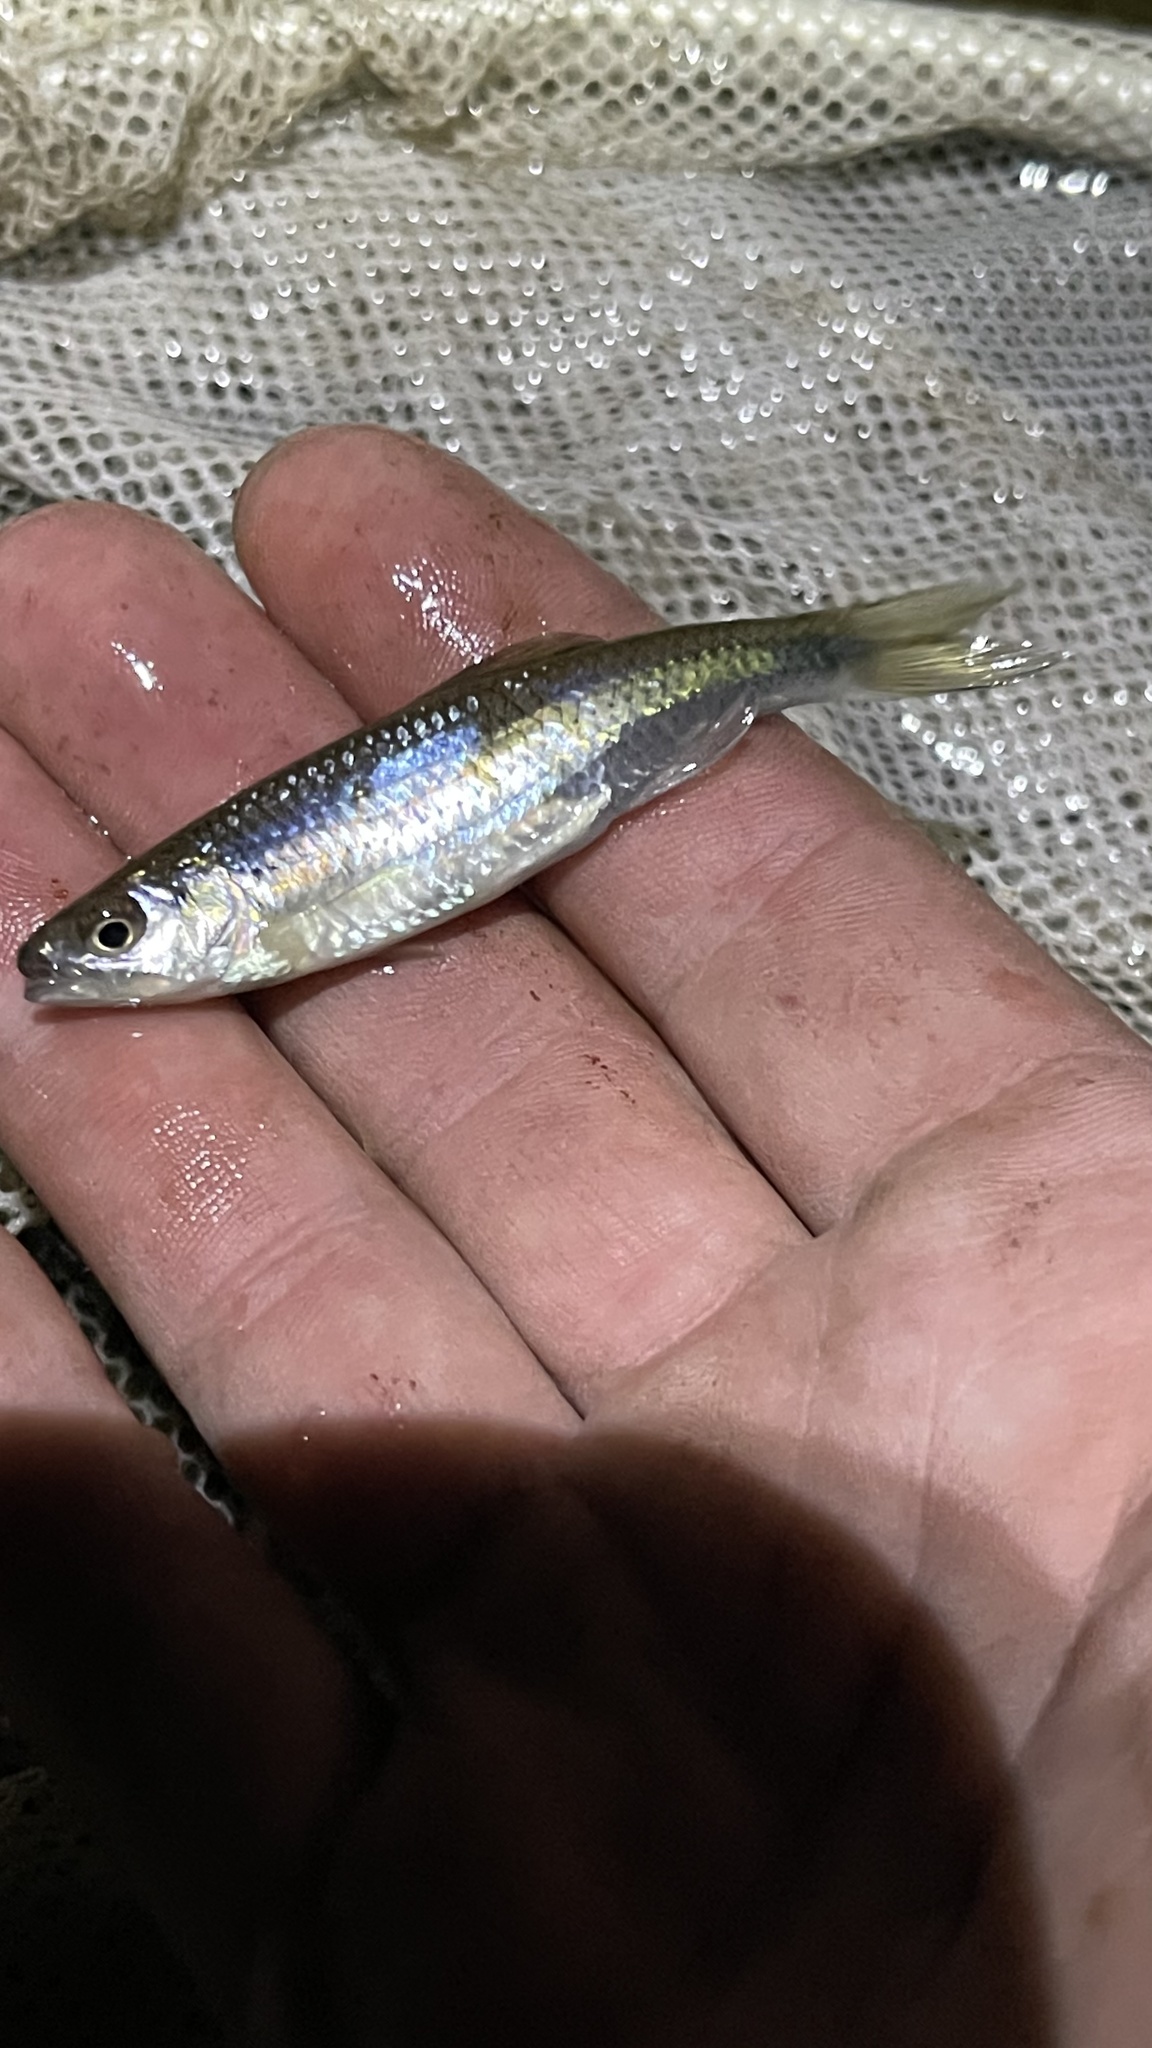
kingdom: Animalia
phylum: Chordata
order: Cypriniformes
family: Cyprinidae
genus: Cyprinella
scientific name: Cyprinella spiloptera
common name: Spotfin shiner
